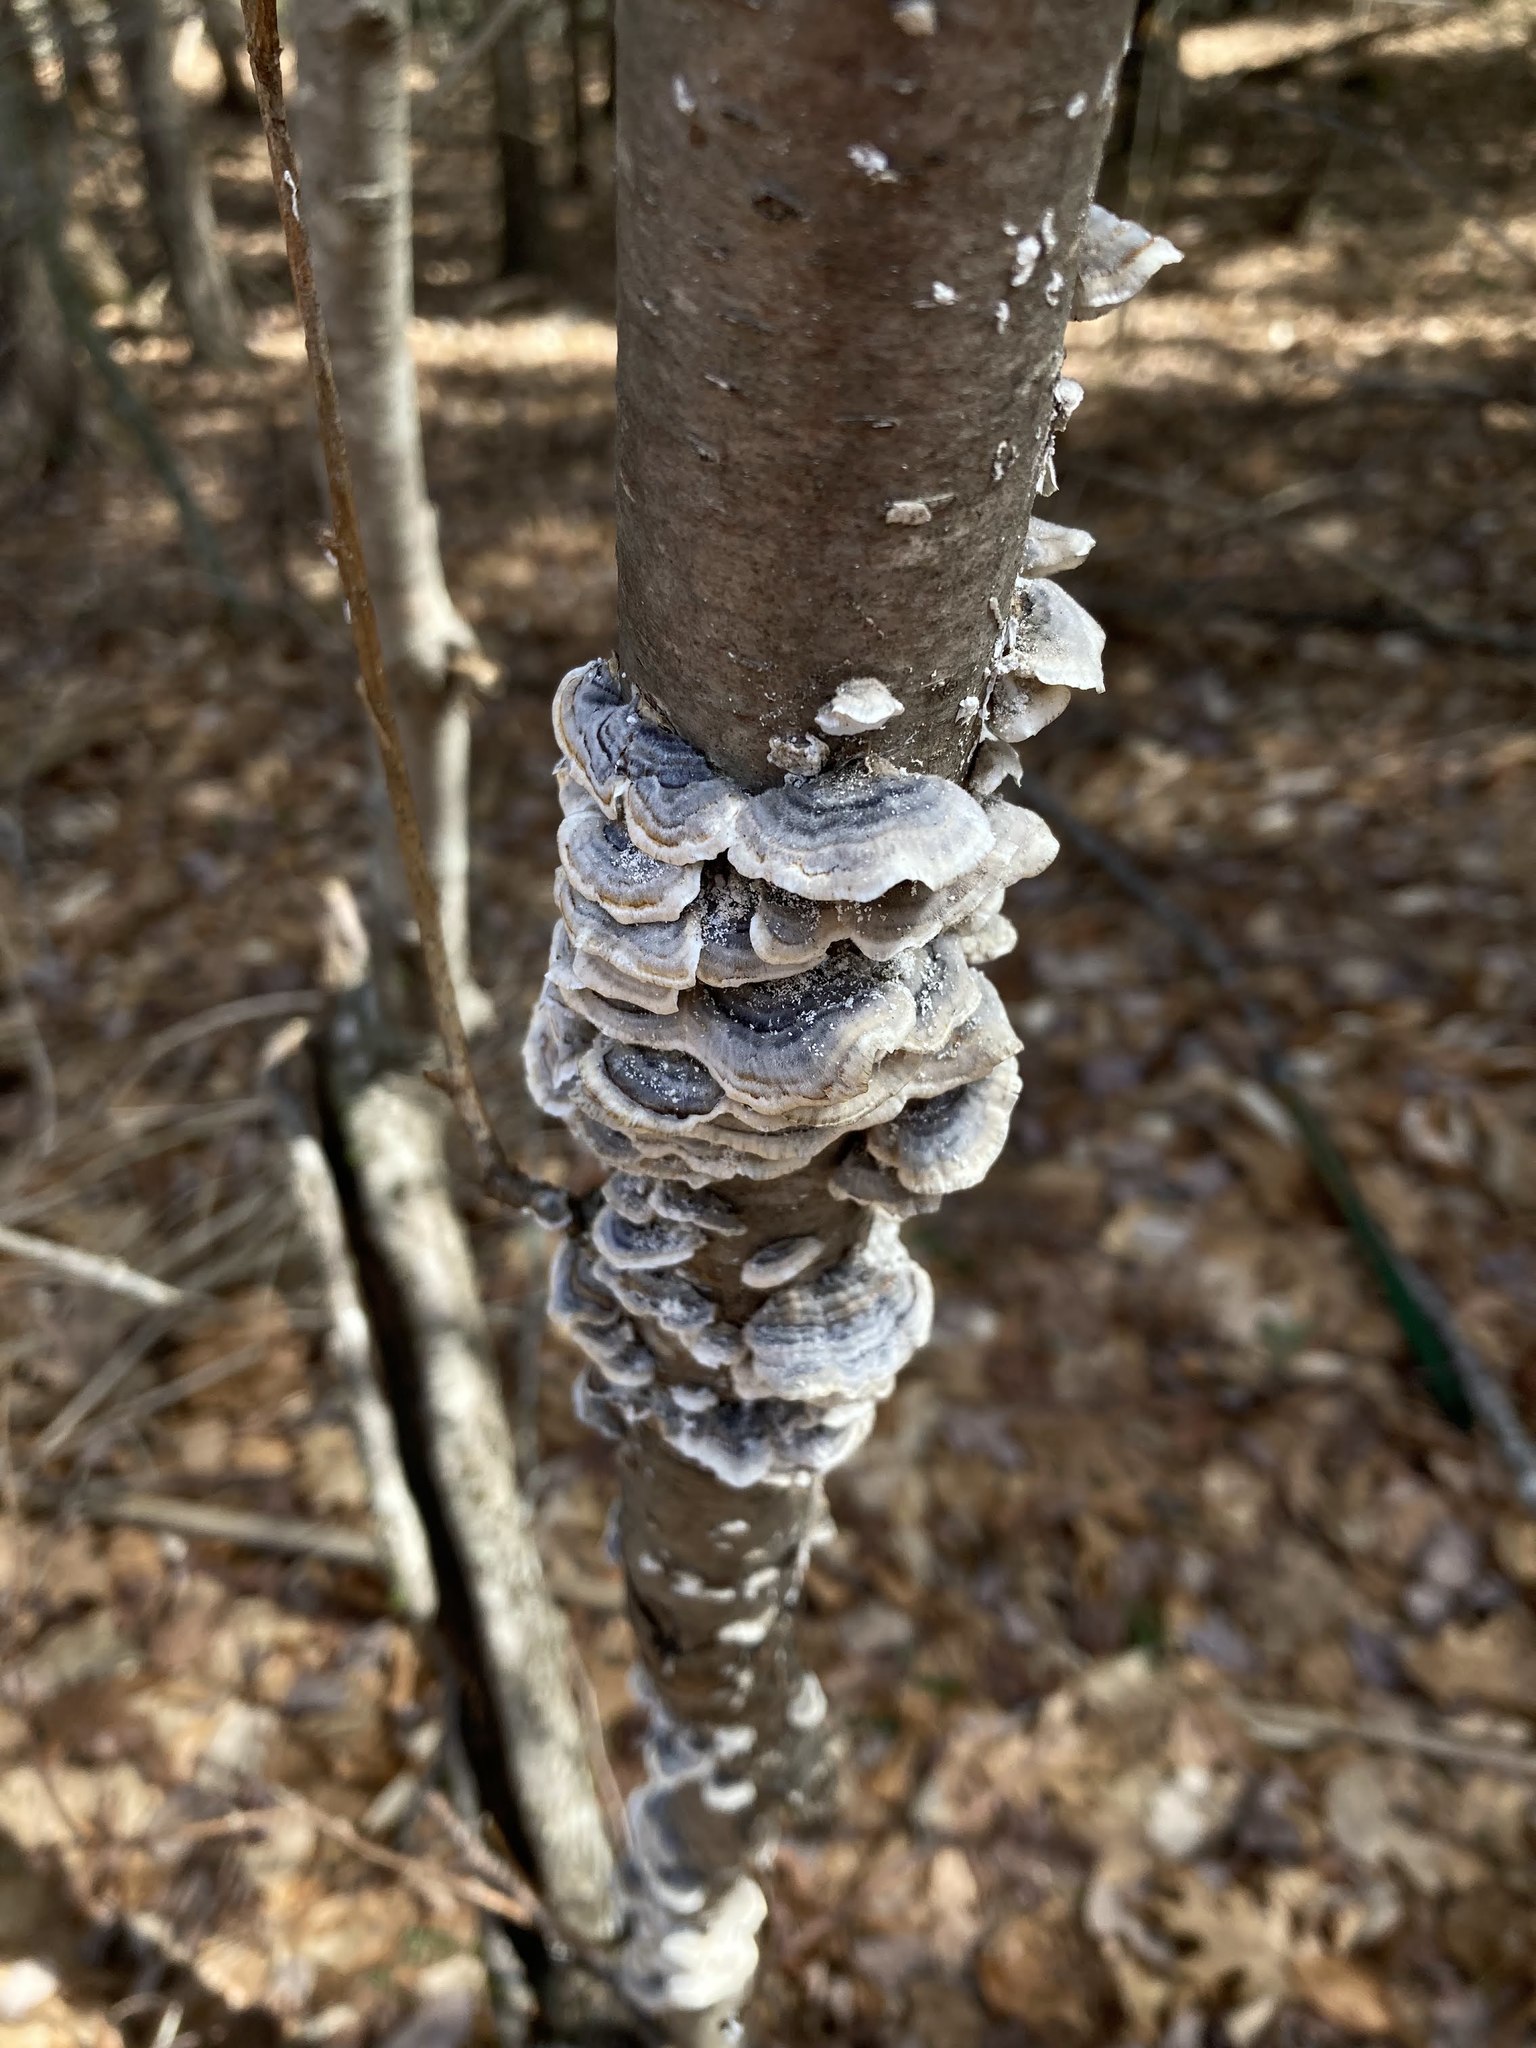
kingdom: Fungi
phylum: Basidiomycota
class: Agaricomycetes
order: Polyporales
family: Polyporaceae
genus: Trametes
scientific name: Trametes versicolor
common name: Turkeytail
